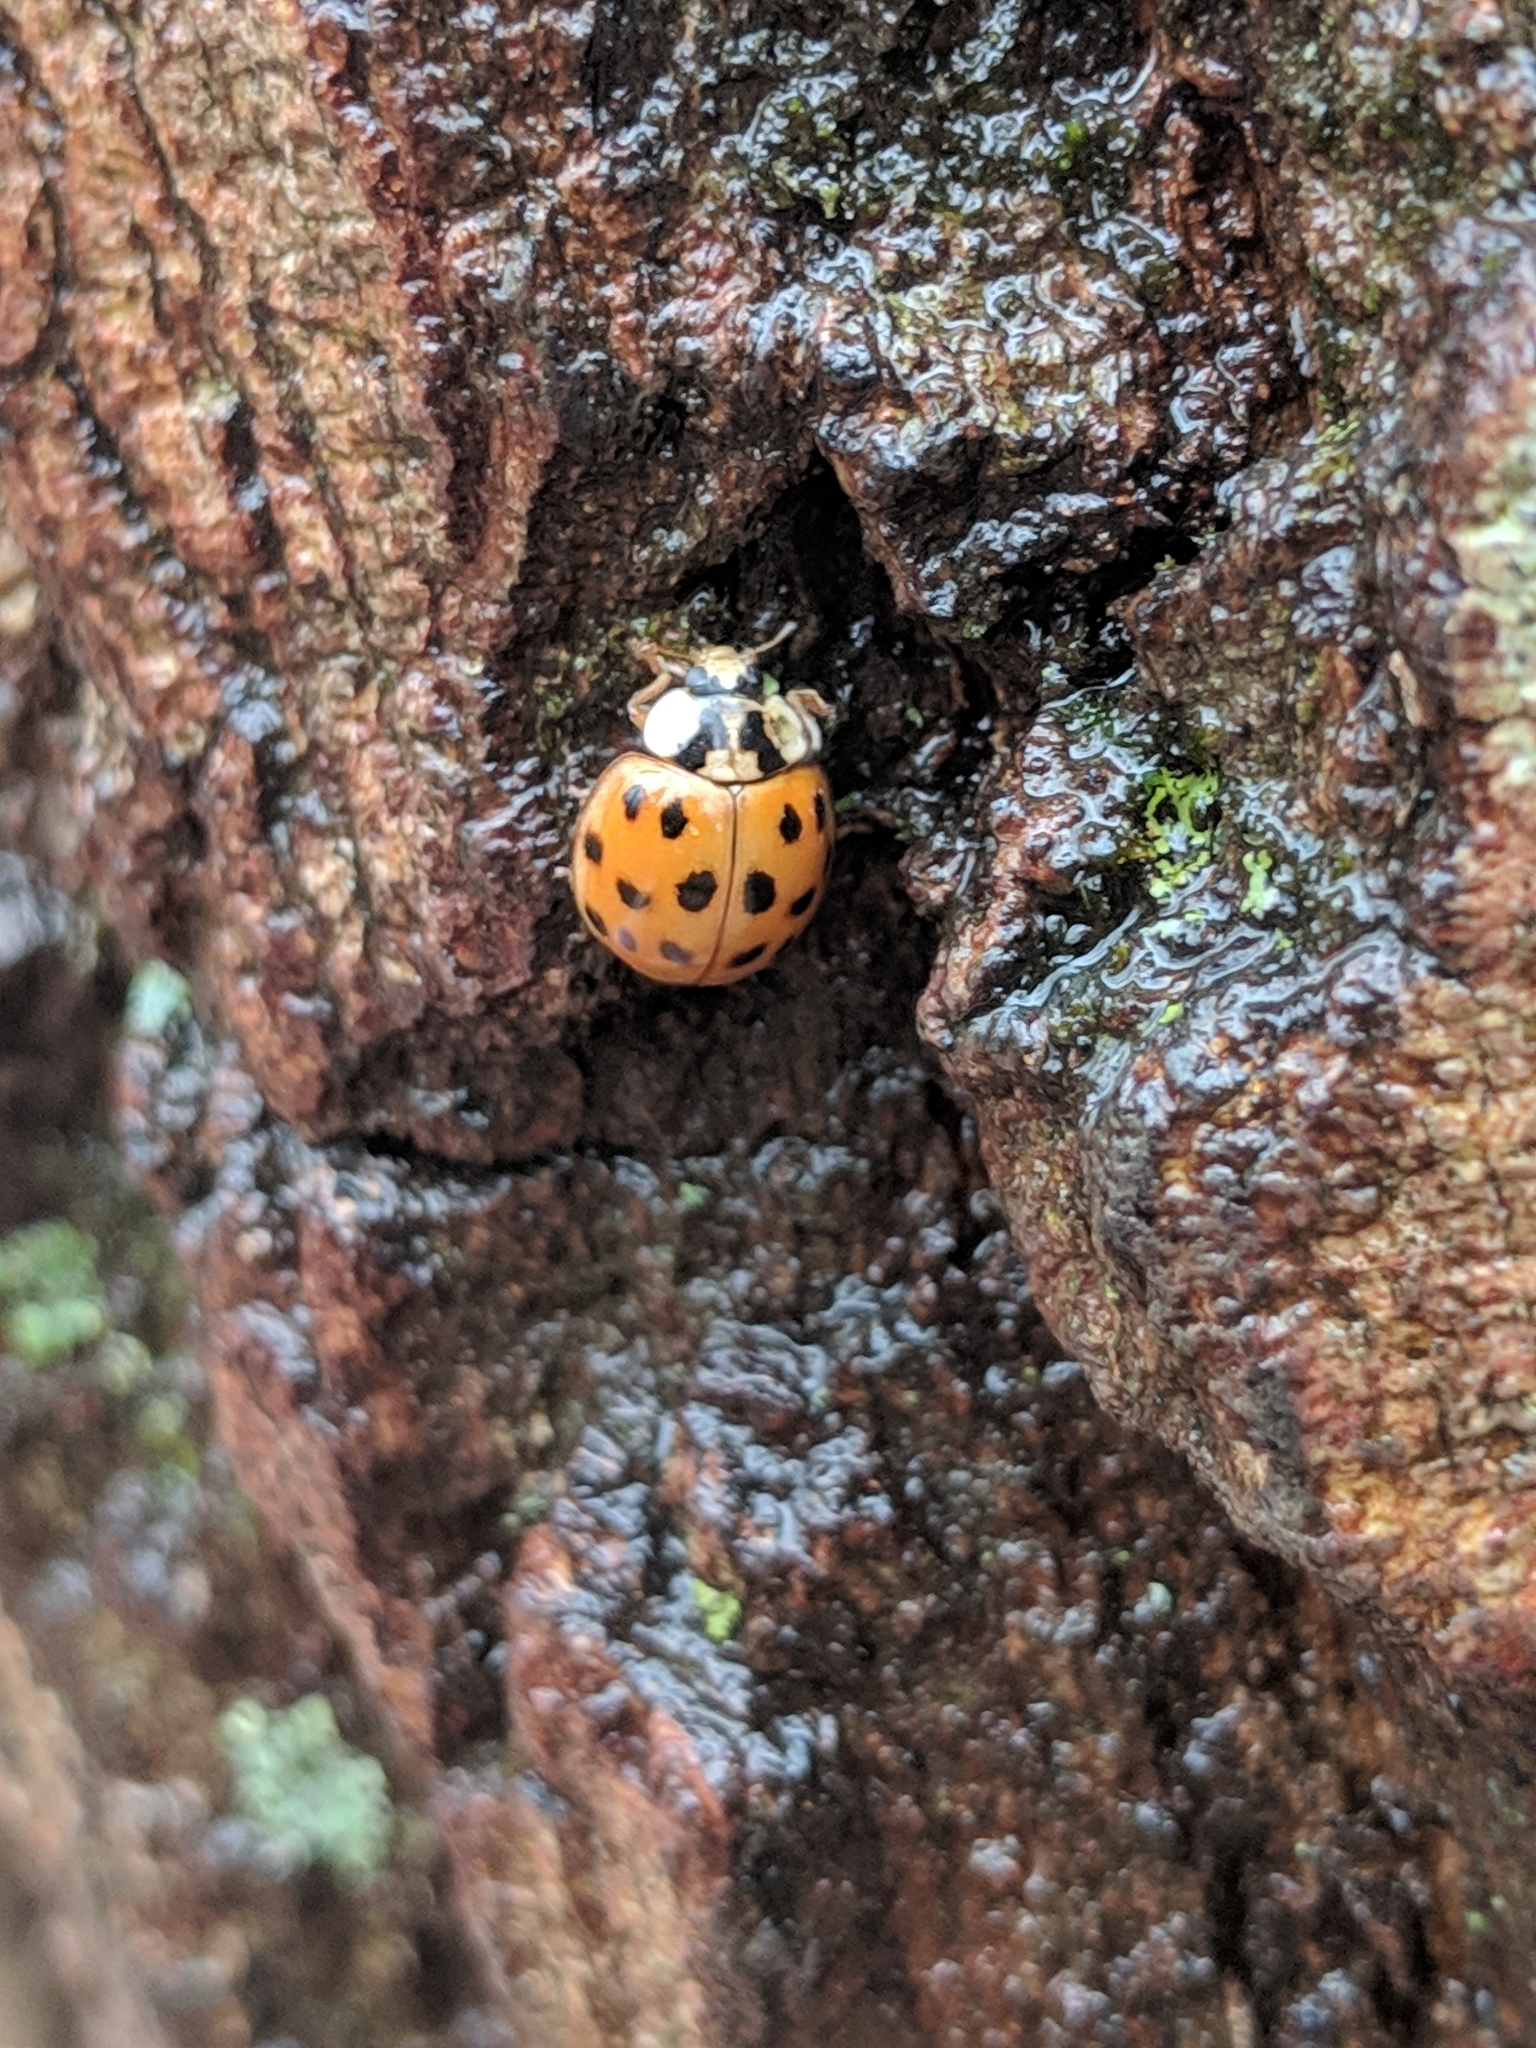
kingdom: Animalia
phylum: Arthropoda
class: Insecta
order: Coleoptera
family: Coccinellidae
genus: Harmonia
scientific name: Harmonia axyridis
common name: Harlequin ladybird
